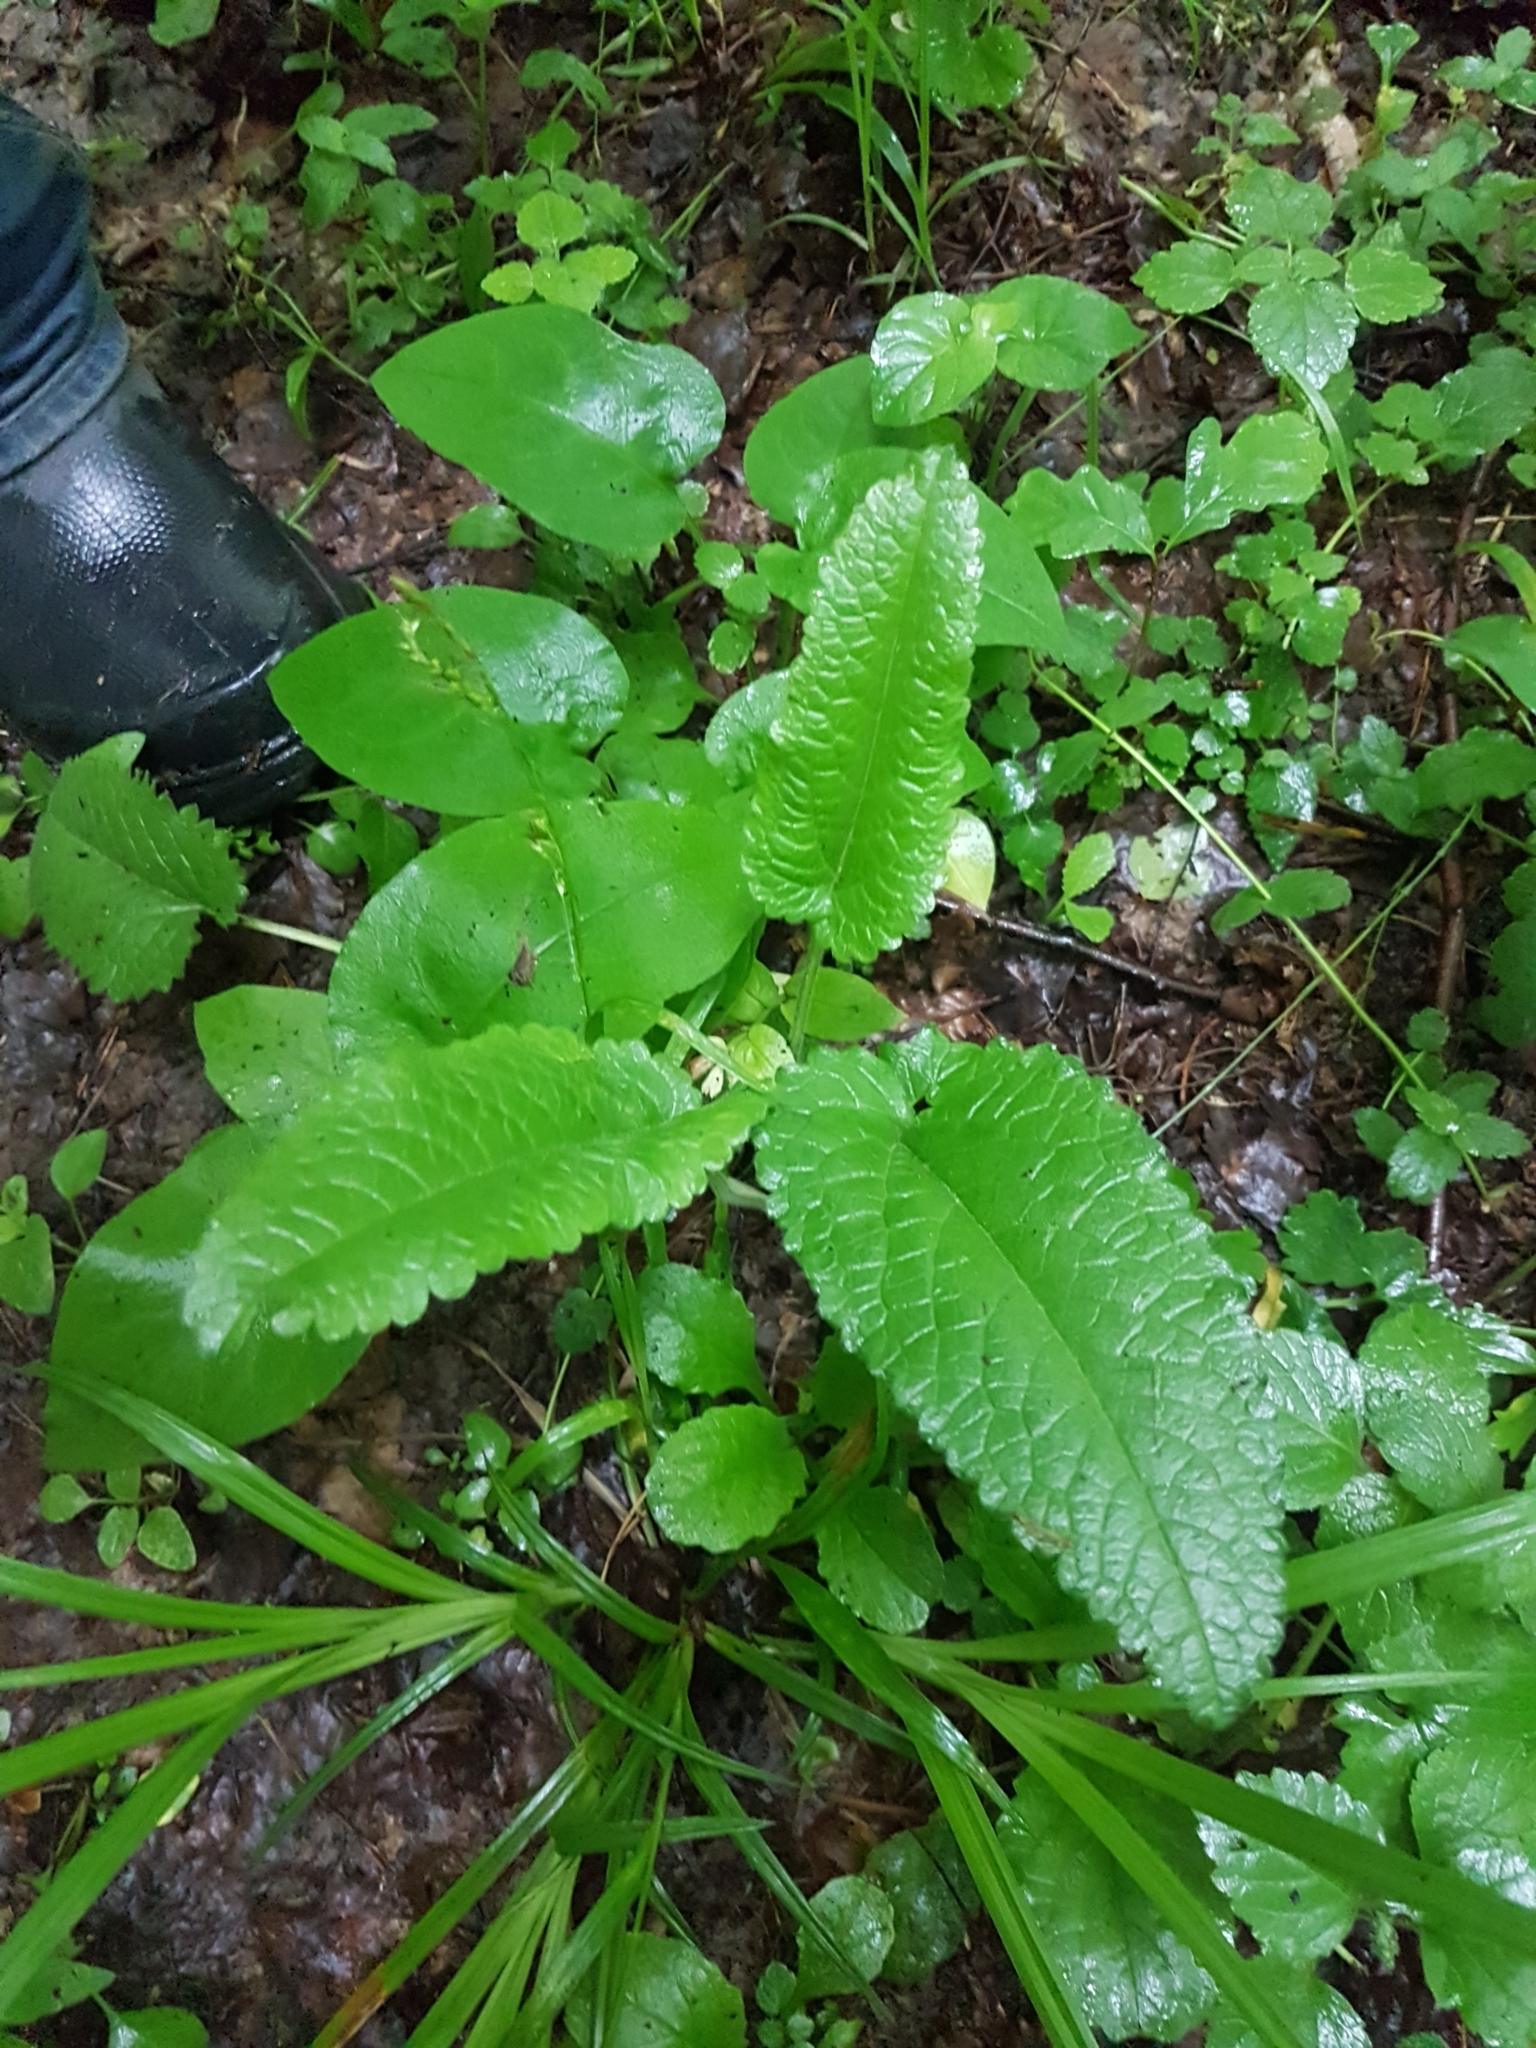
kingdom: Plantae
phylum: Tracheophyta
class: Magnoliopsida
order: Lamiales
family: Lamiaceae
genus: Betonica
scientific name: Betonica officinalis
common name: Bishop's-wort
